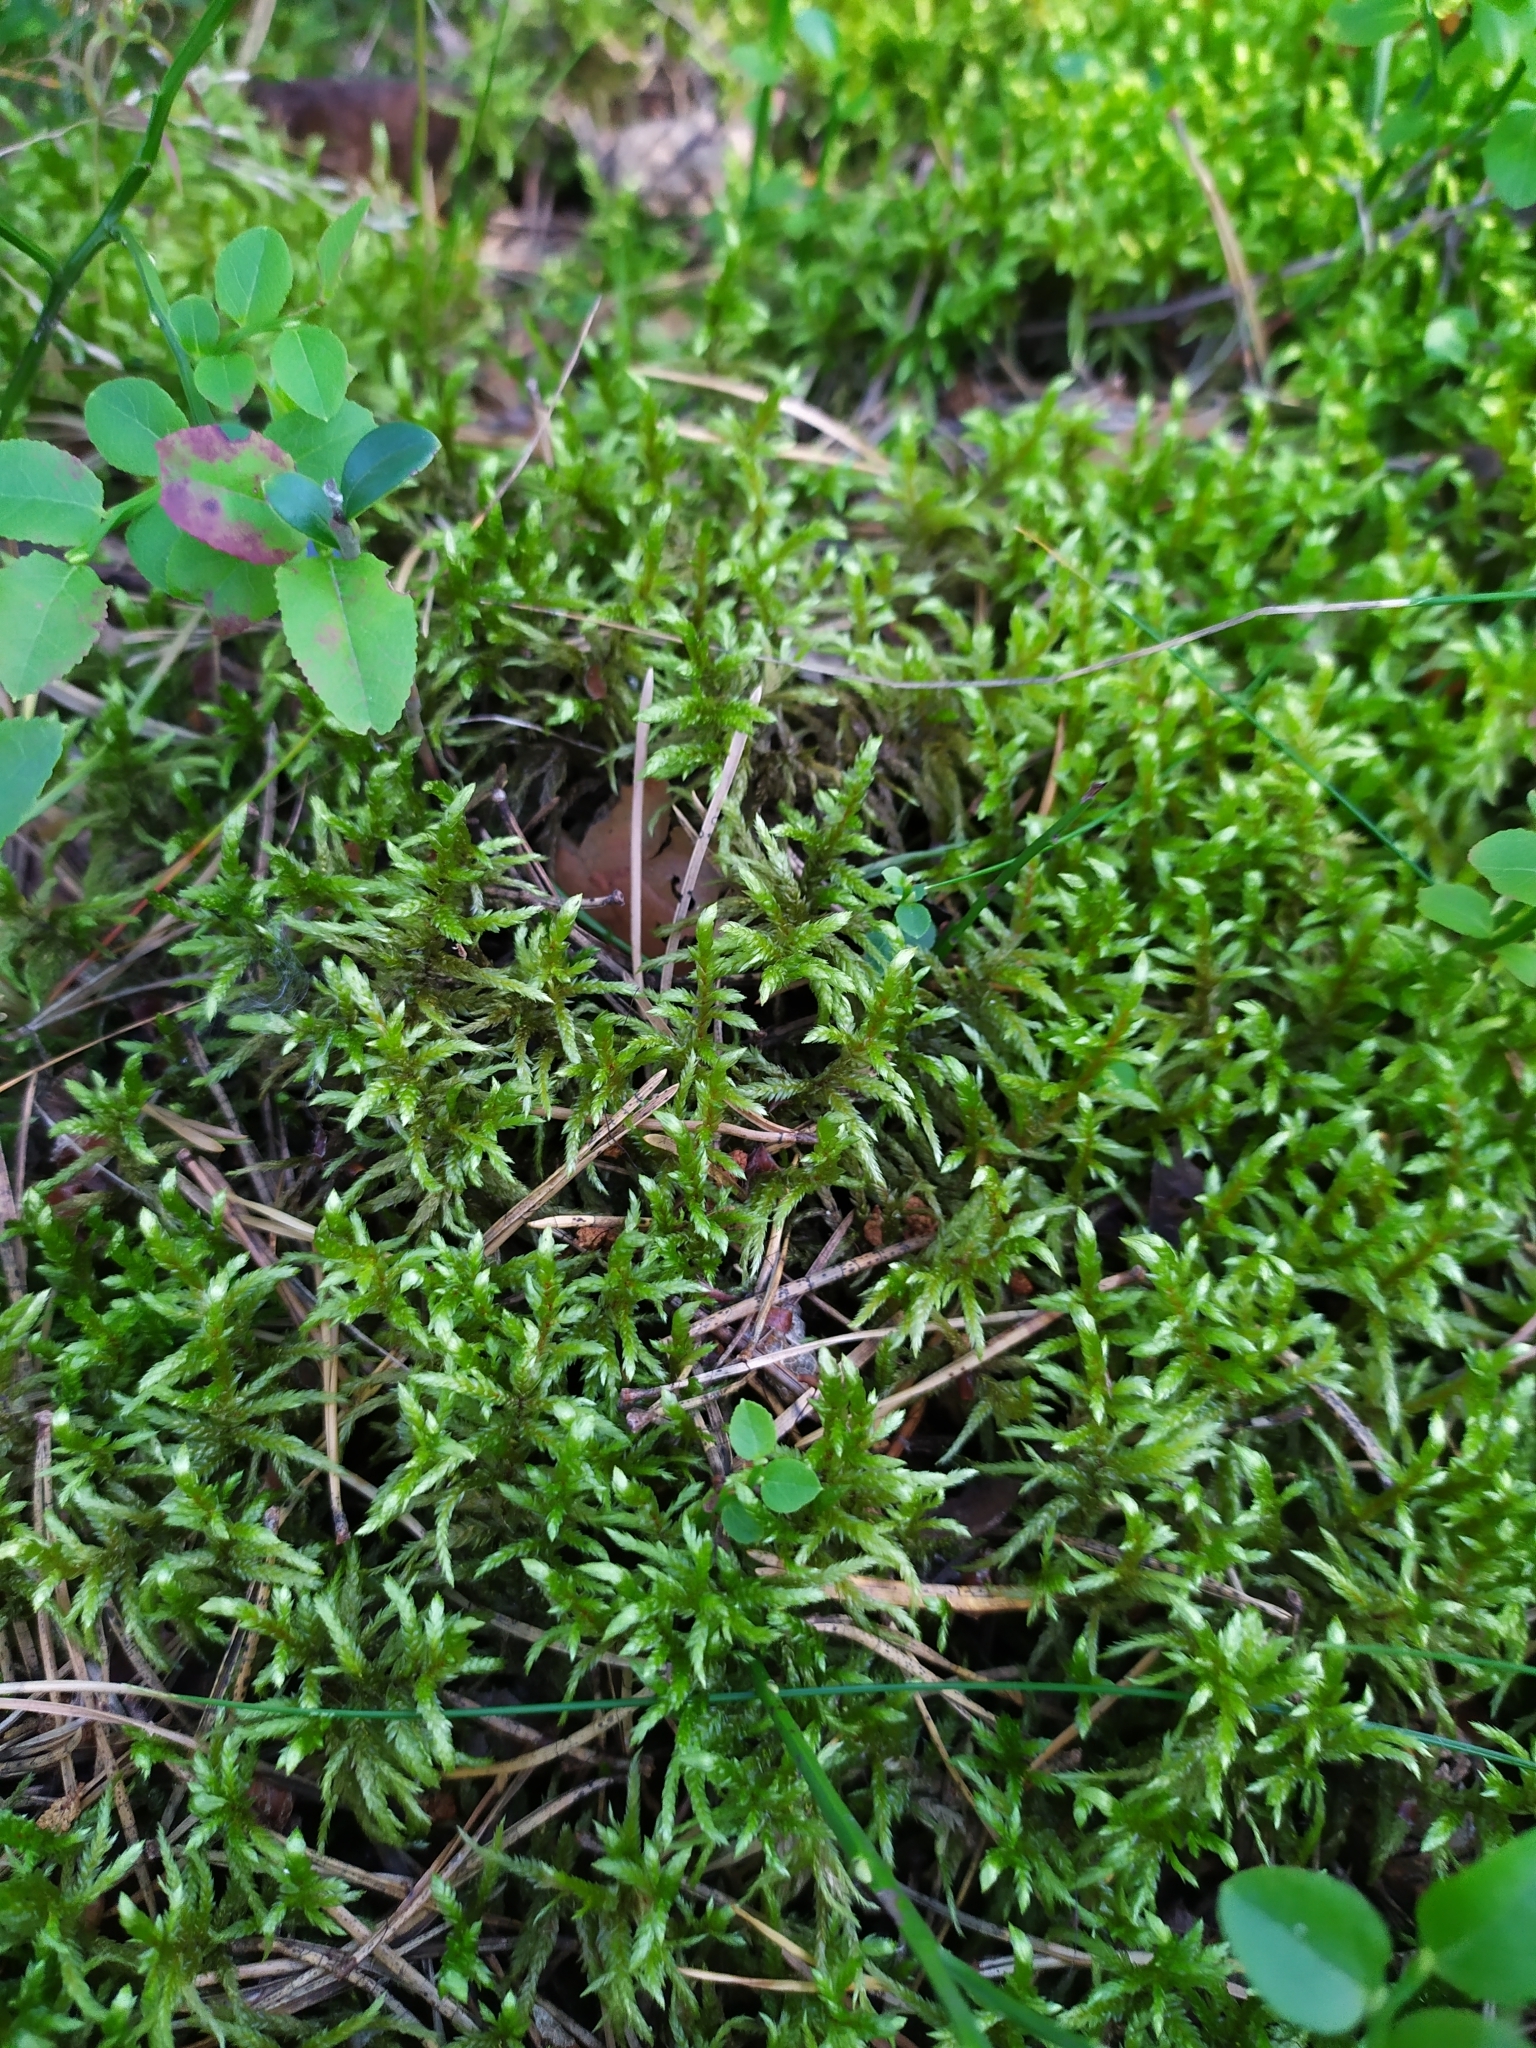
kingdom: Plantae
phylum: Bryophyta
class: Bryopsida
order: Hypnales
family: Hylocomiaceae
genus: Pleurozium
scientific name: Pleurozium schreberi
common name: Red-stemmed feather moss
